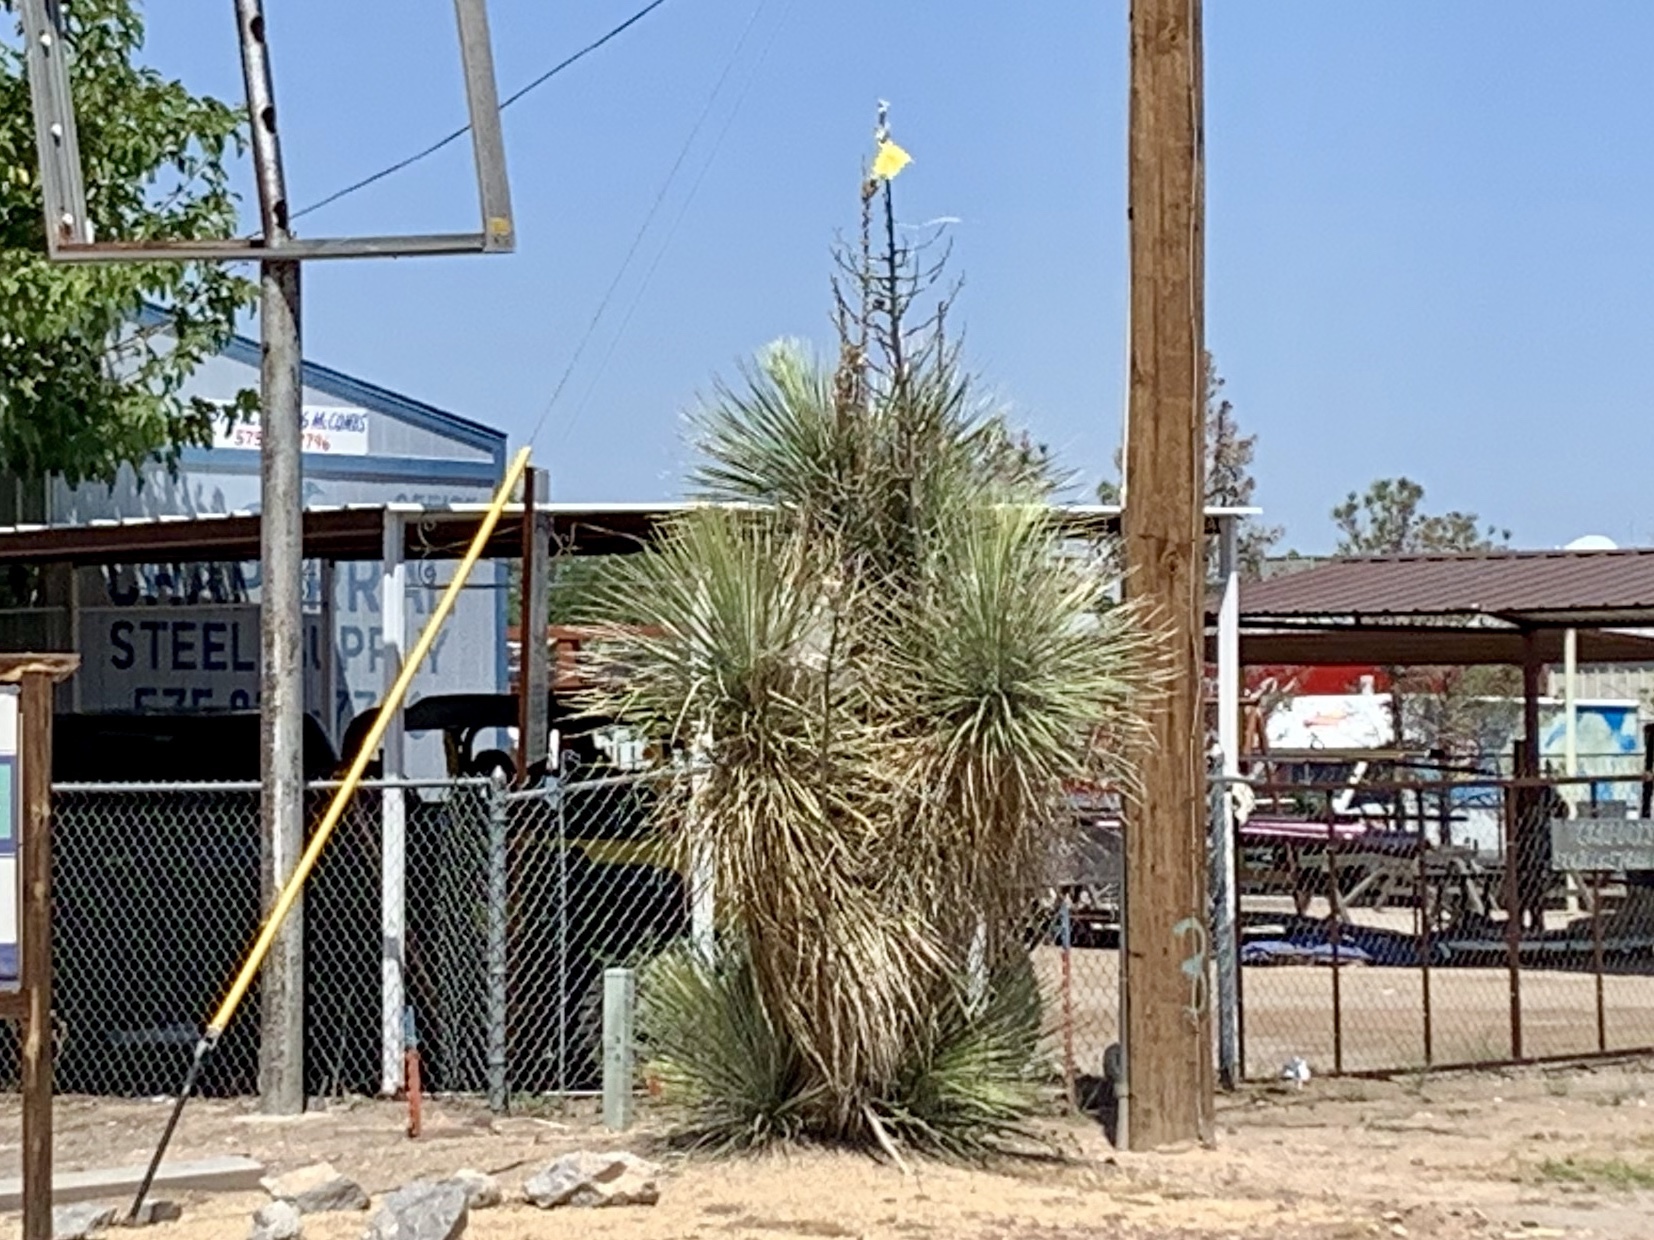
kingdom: Plantae
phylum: Tracheophyta
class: Liliopsida
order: Asparagales
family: Asparagaceae
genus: Yucca
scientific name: Yucca elata
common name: Palmella
